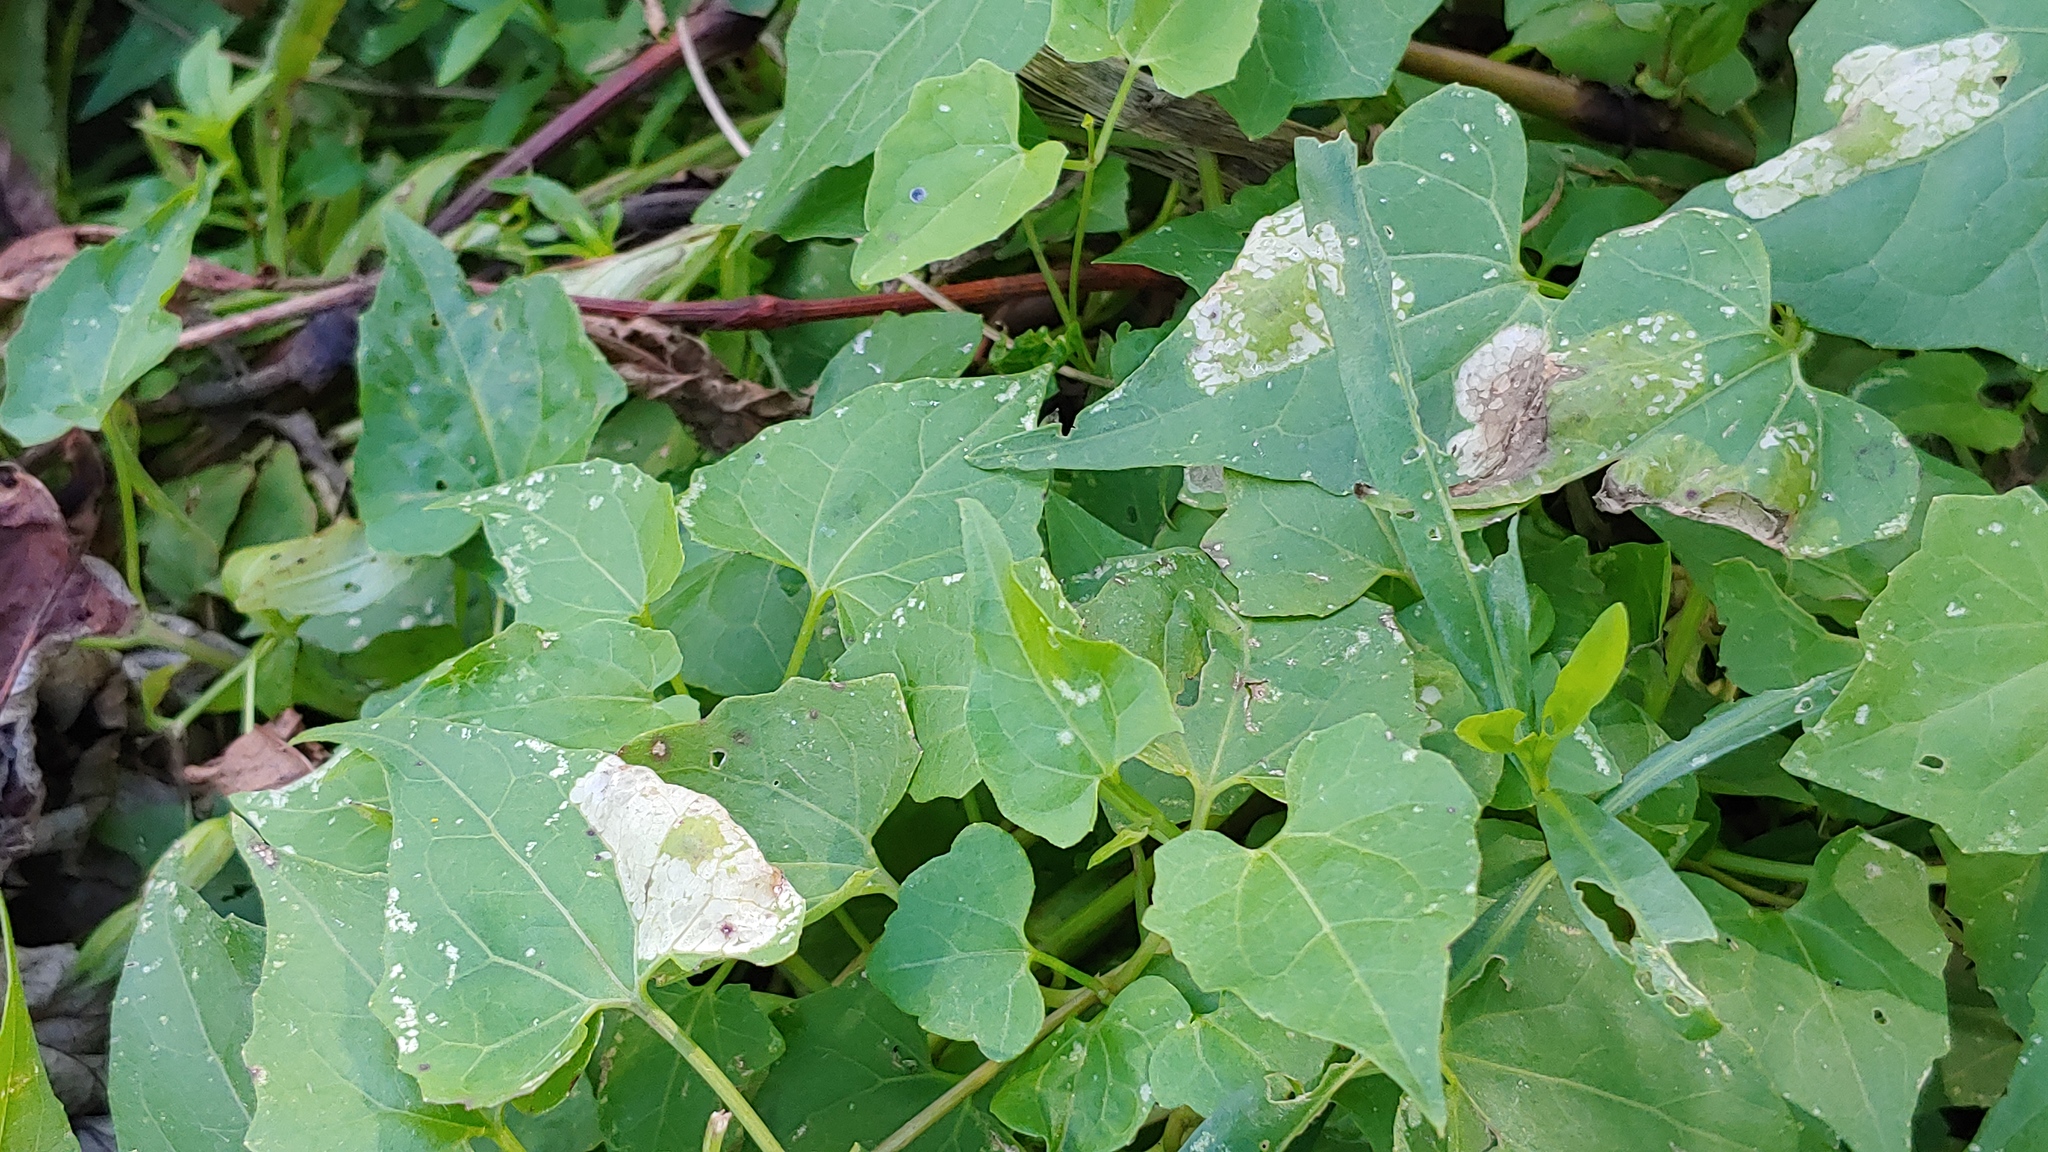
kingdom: Animalia
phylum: Arthropoda
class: Insecta
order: Lepidoptera
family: Gracillariidae
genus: Leucospilapteryx
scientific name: Leucospilapteryx venustella
